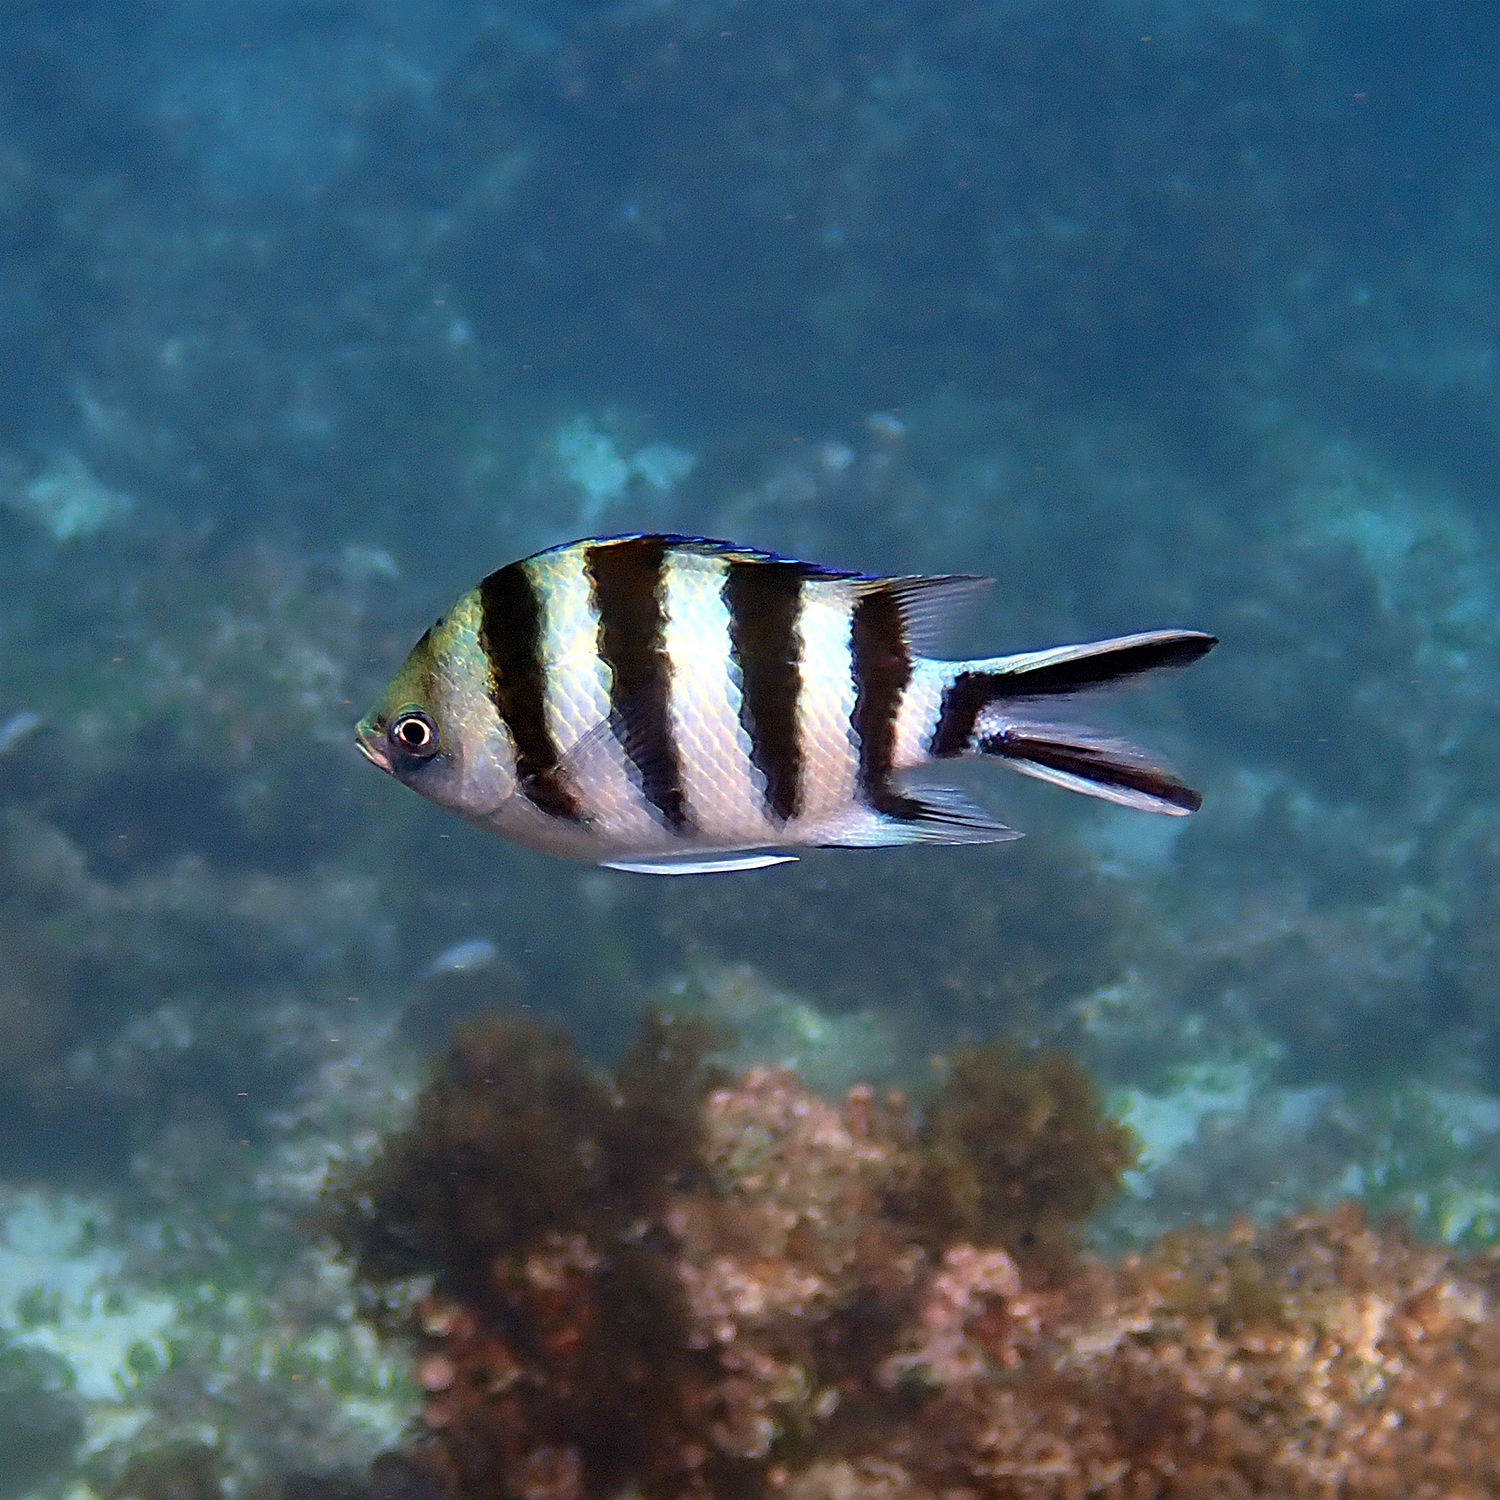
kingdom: Animalia
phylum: Chordata
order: Perciformes
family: Pomacentridae
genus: Abudefduf
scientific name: Abudefduf sexfasciatus
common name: Scissortail sergeant
